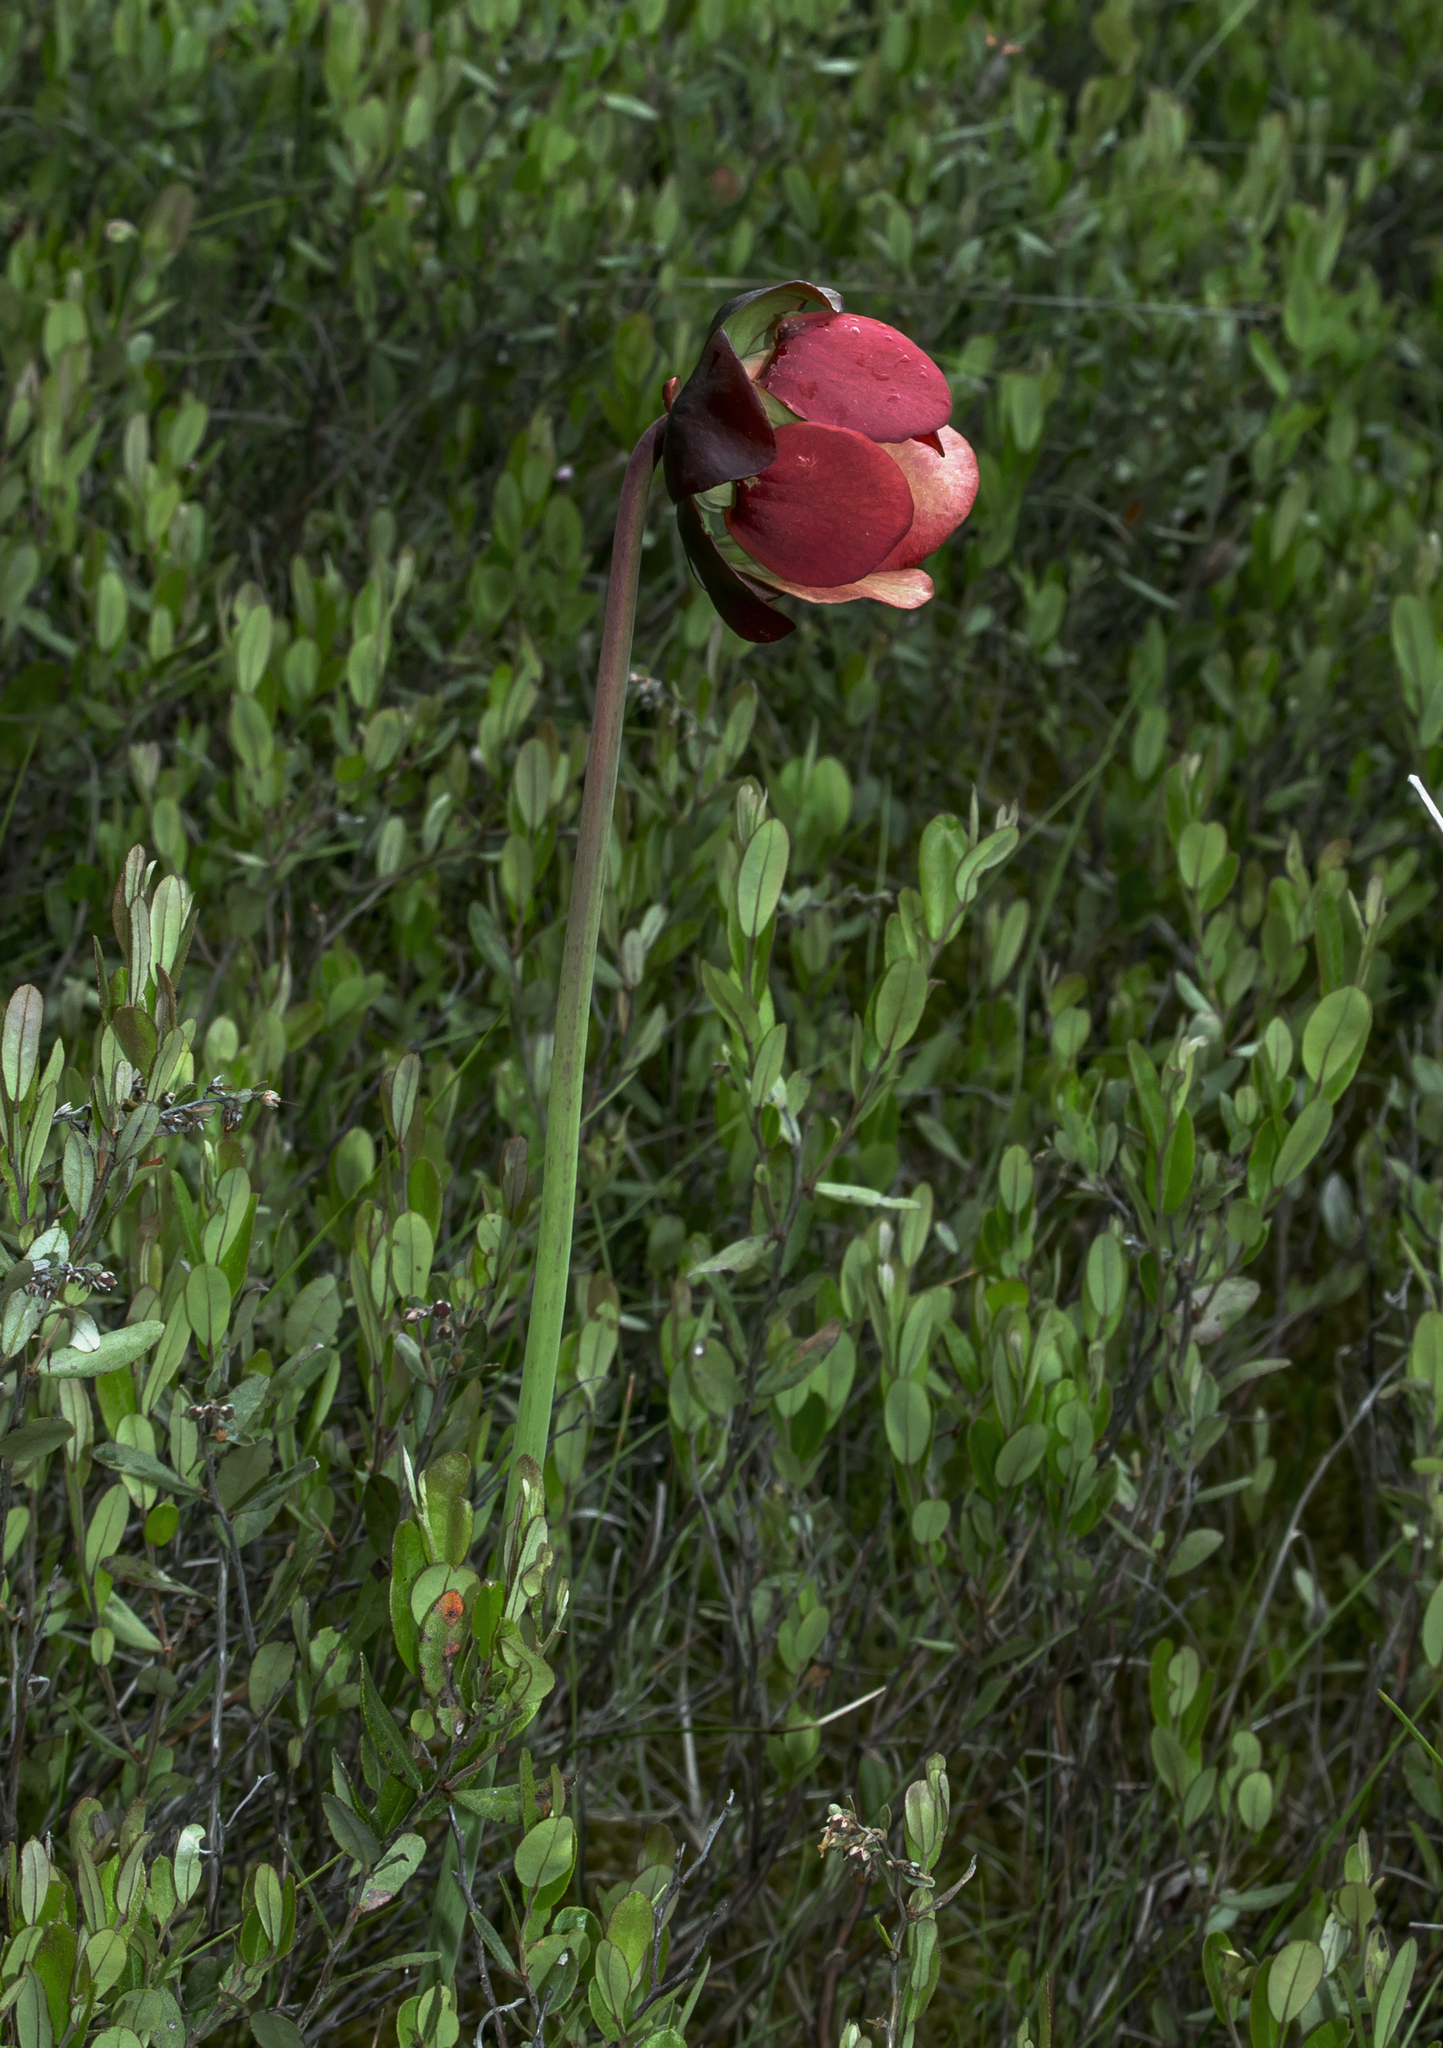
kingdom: Plantae
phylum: Tracheophyta
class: Magnoliopsida
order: Ericales
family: Sarraceniaceae
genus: Sarracenia
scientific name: Sarracenia purpurea
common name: Pitcherplant
